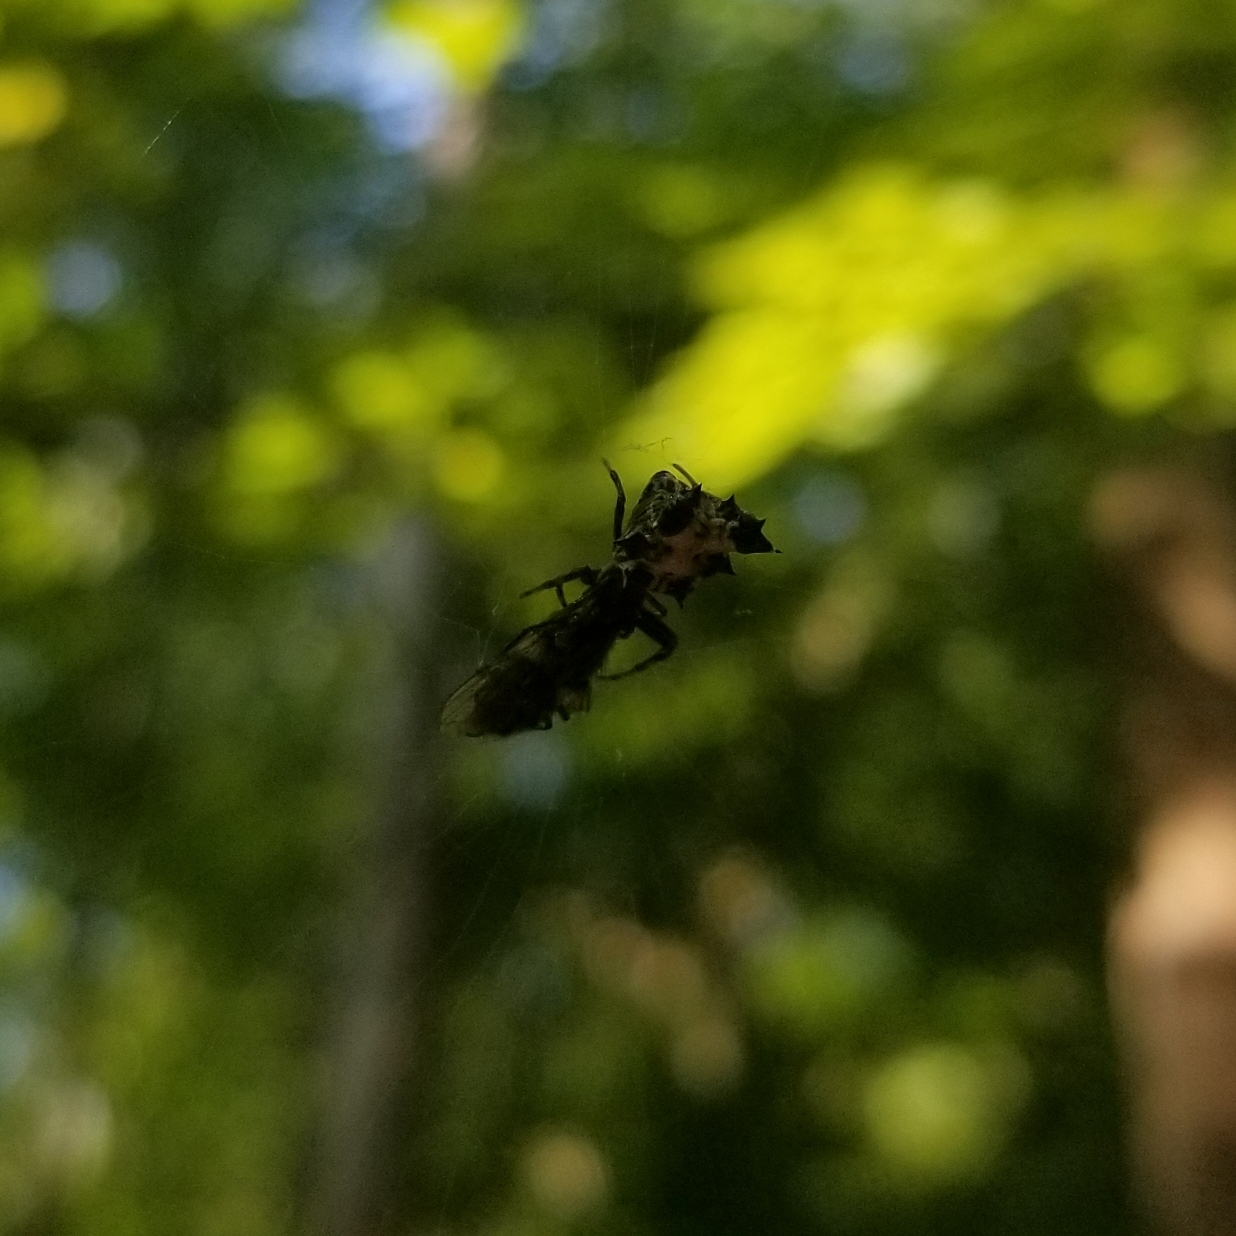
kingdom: Animalia
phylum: Arthropoda
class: Arachnida
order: Araneae
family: Araneidae
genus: Micrathena
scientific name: Micrathena gracilis
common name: Orb weavers
